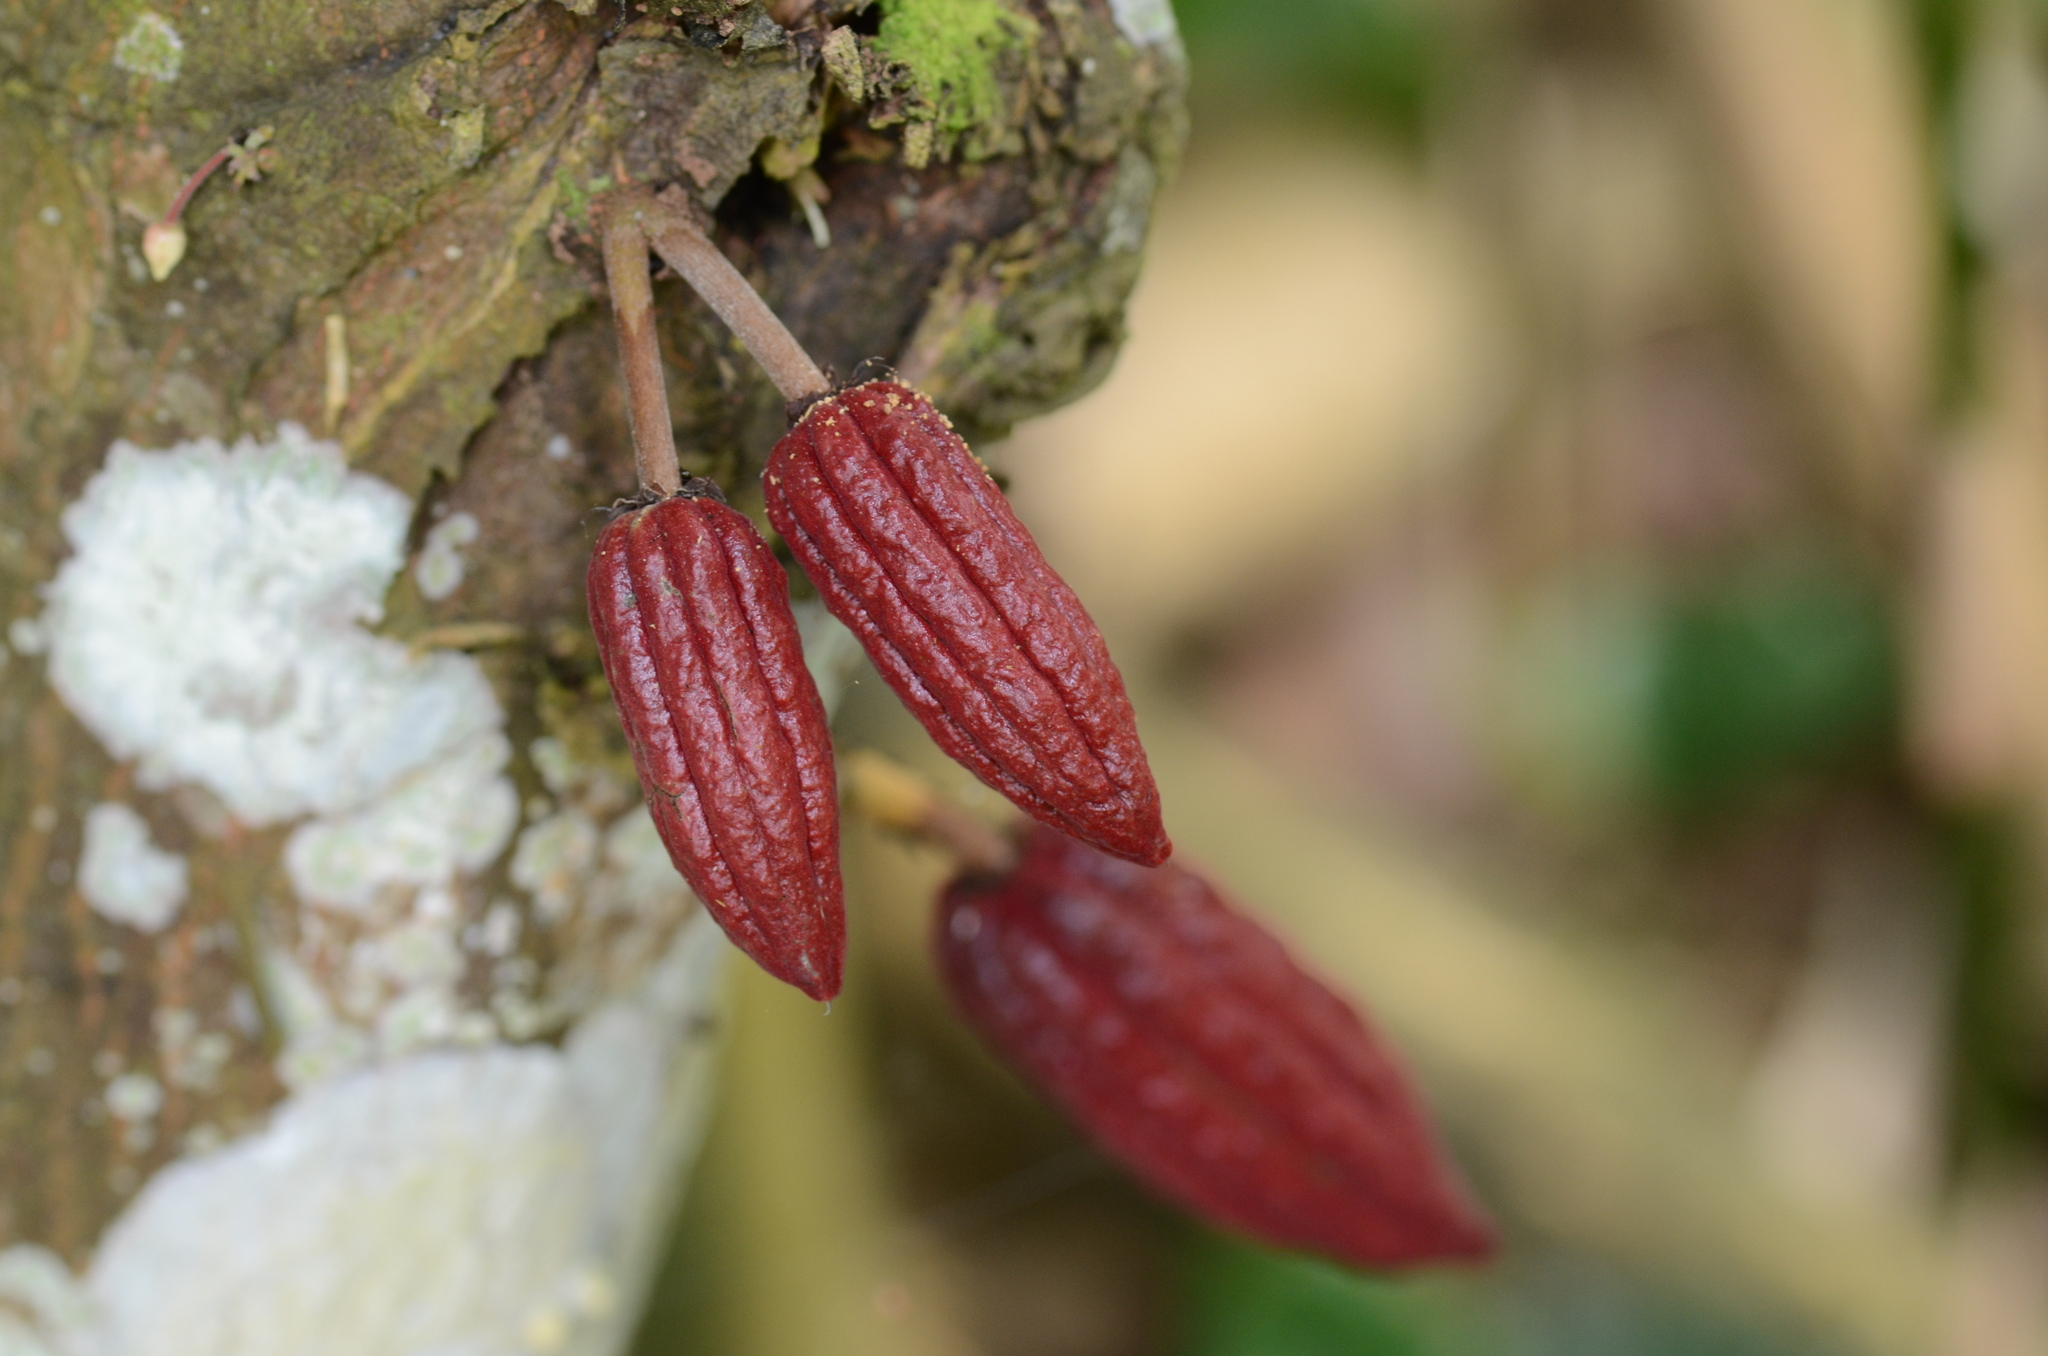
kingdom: Plantae
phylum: Tracheophyta
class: Magnoliopsida
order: Malvales
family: Malvaceae
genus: Theobroma
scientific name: Theobroma cacao
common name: Cocoa
